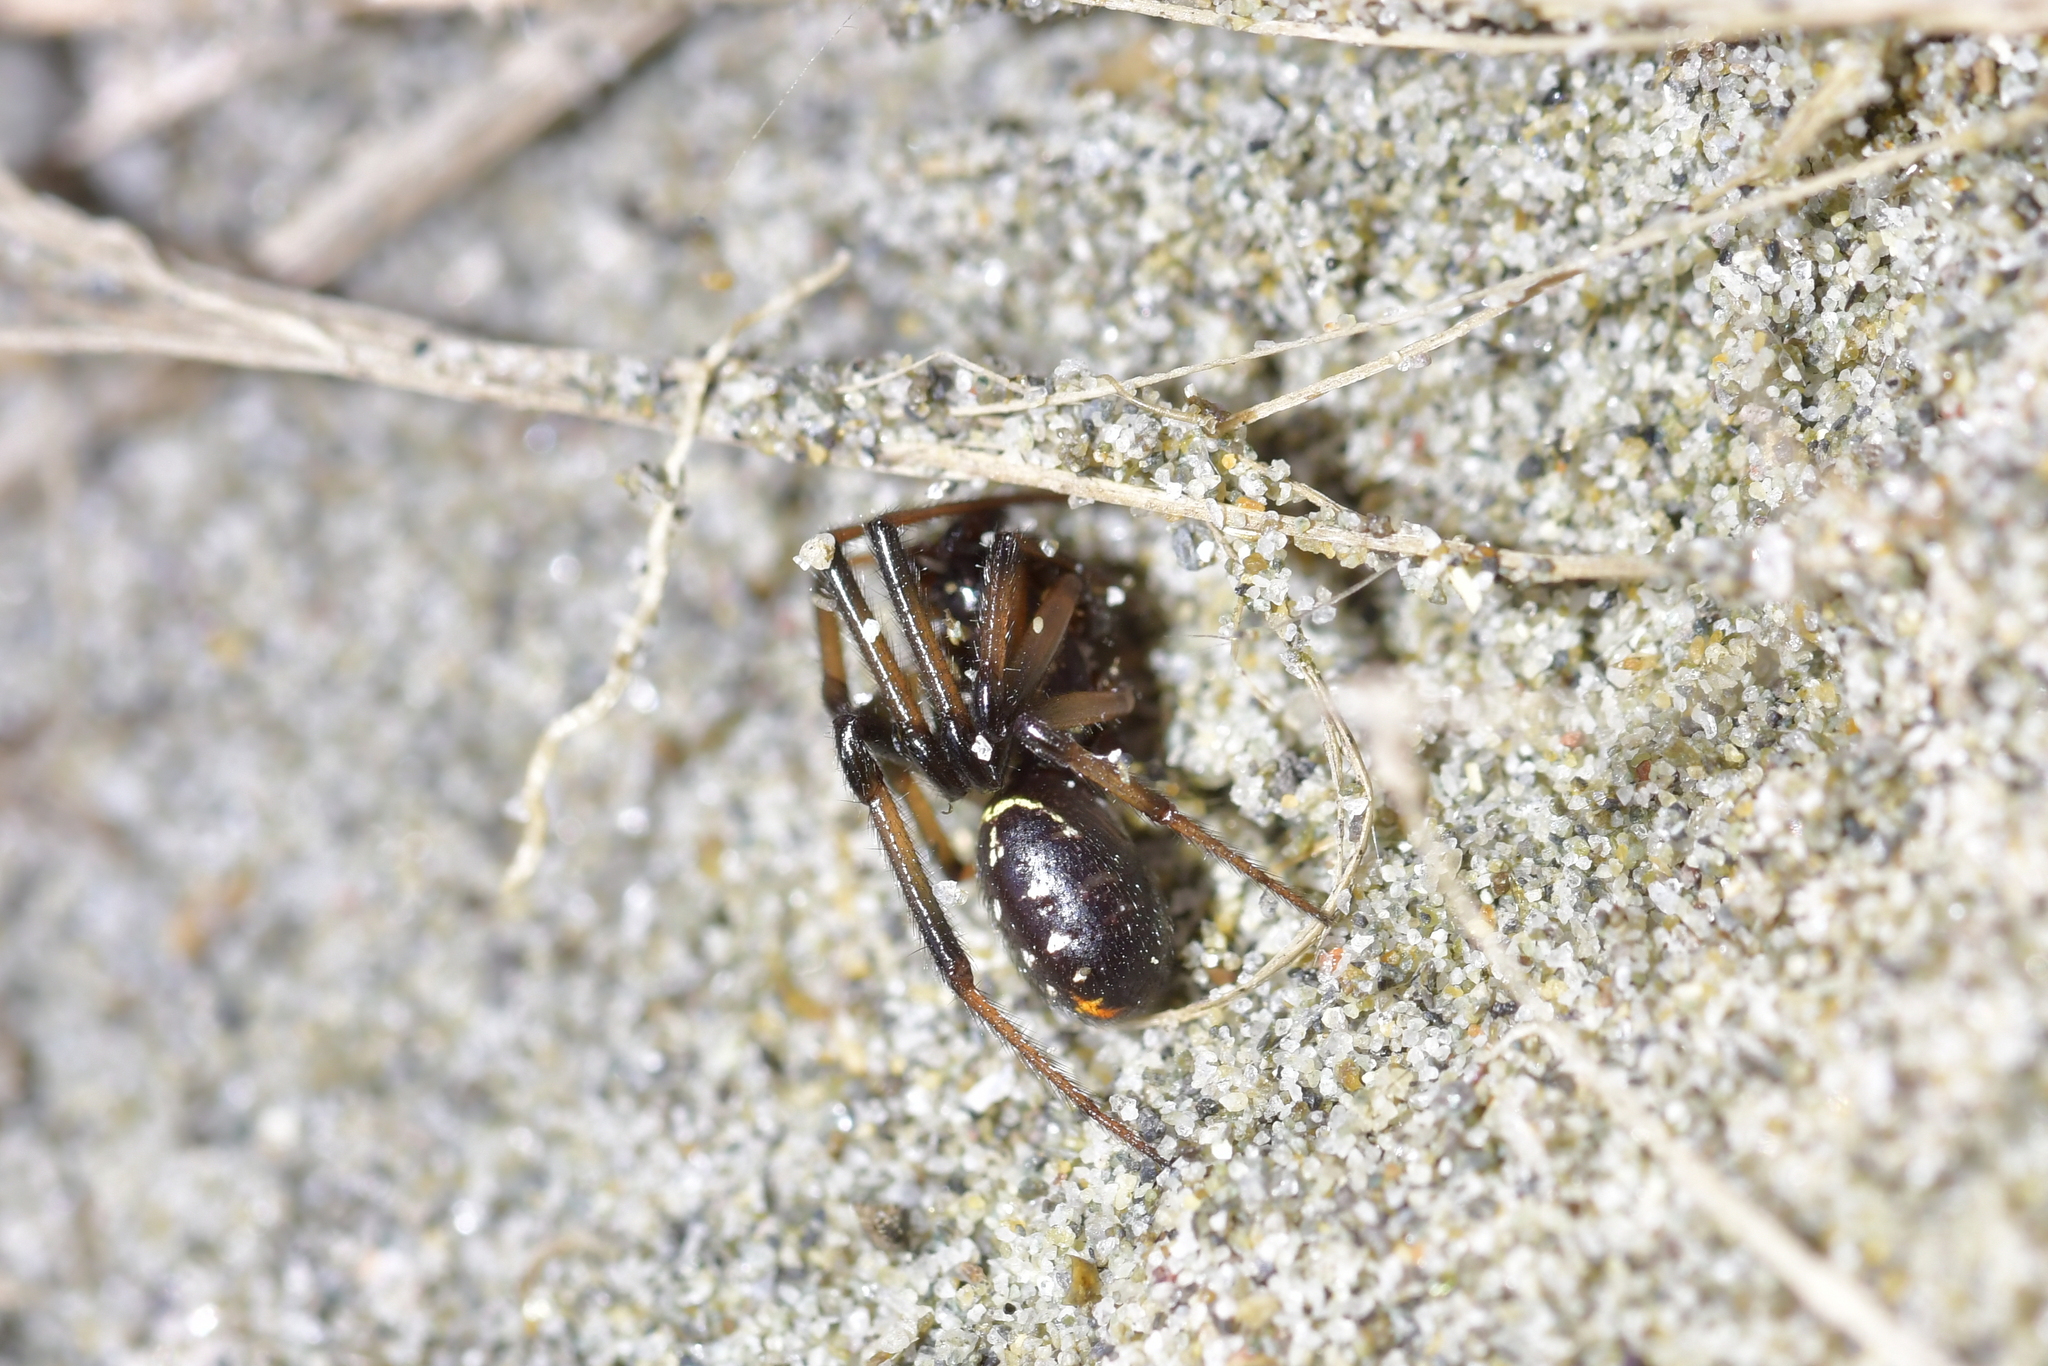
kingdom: Animalia
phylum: Arthropoda
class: Arachnida
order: Araneae
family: Theridiidae
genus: Steatoda
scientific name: Steatoda capensis
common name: Cobweb weaver
